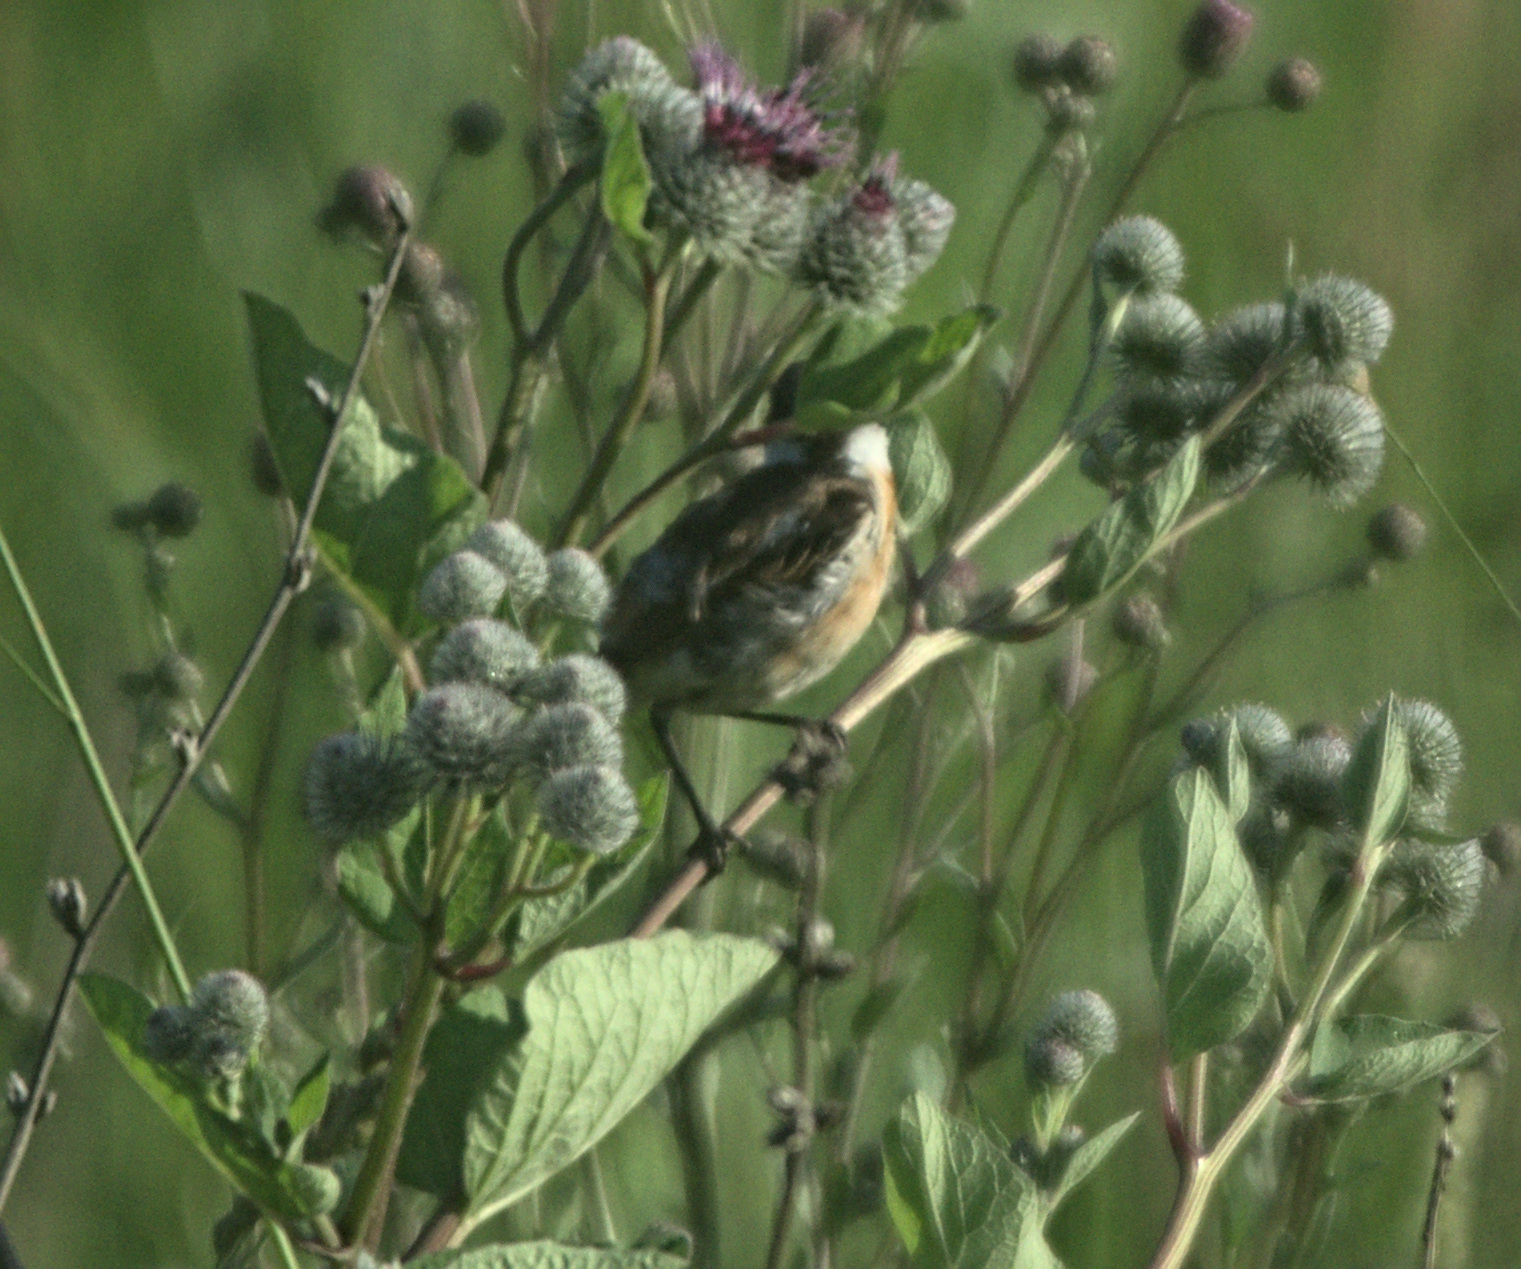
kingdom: Animalia
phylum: Chordata
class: Aves
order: Passeriformes
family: Muscicapidae
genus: Saxicola
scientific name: Saxicola maurus
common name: Siberian stonechat
